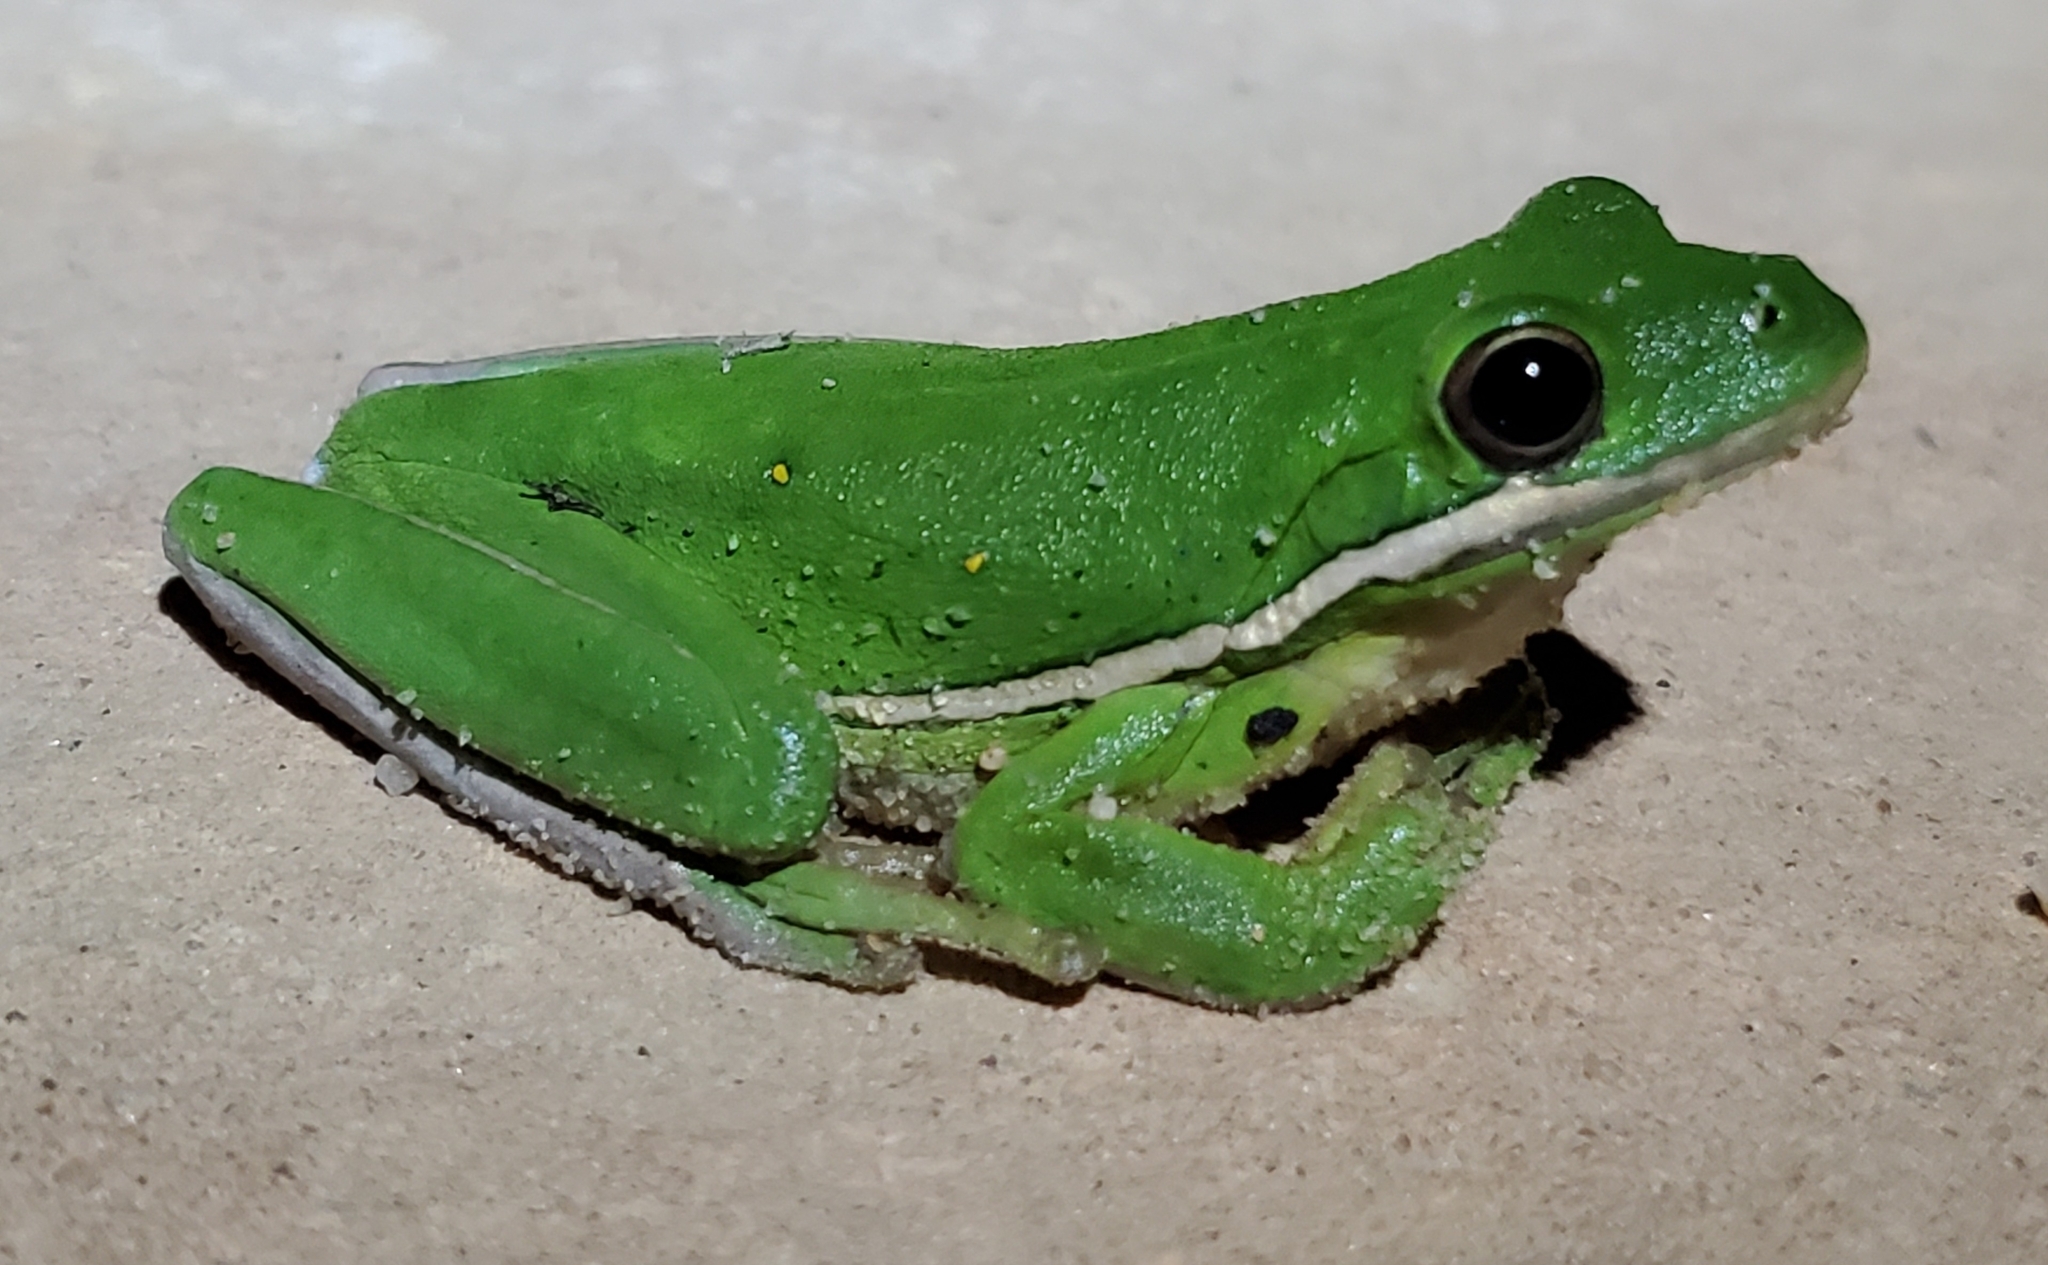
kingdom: Animalia
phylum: Chordata
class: Amphibia
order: Anura
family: Hylidae
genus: Dryophytes
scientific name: Dryophytes cinereus
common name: Green treefrog
